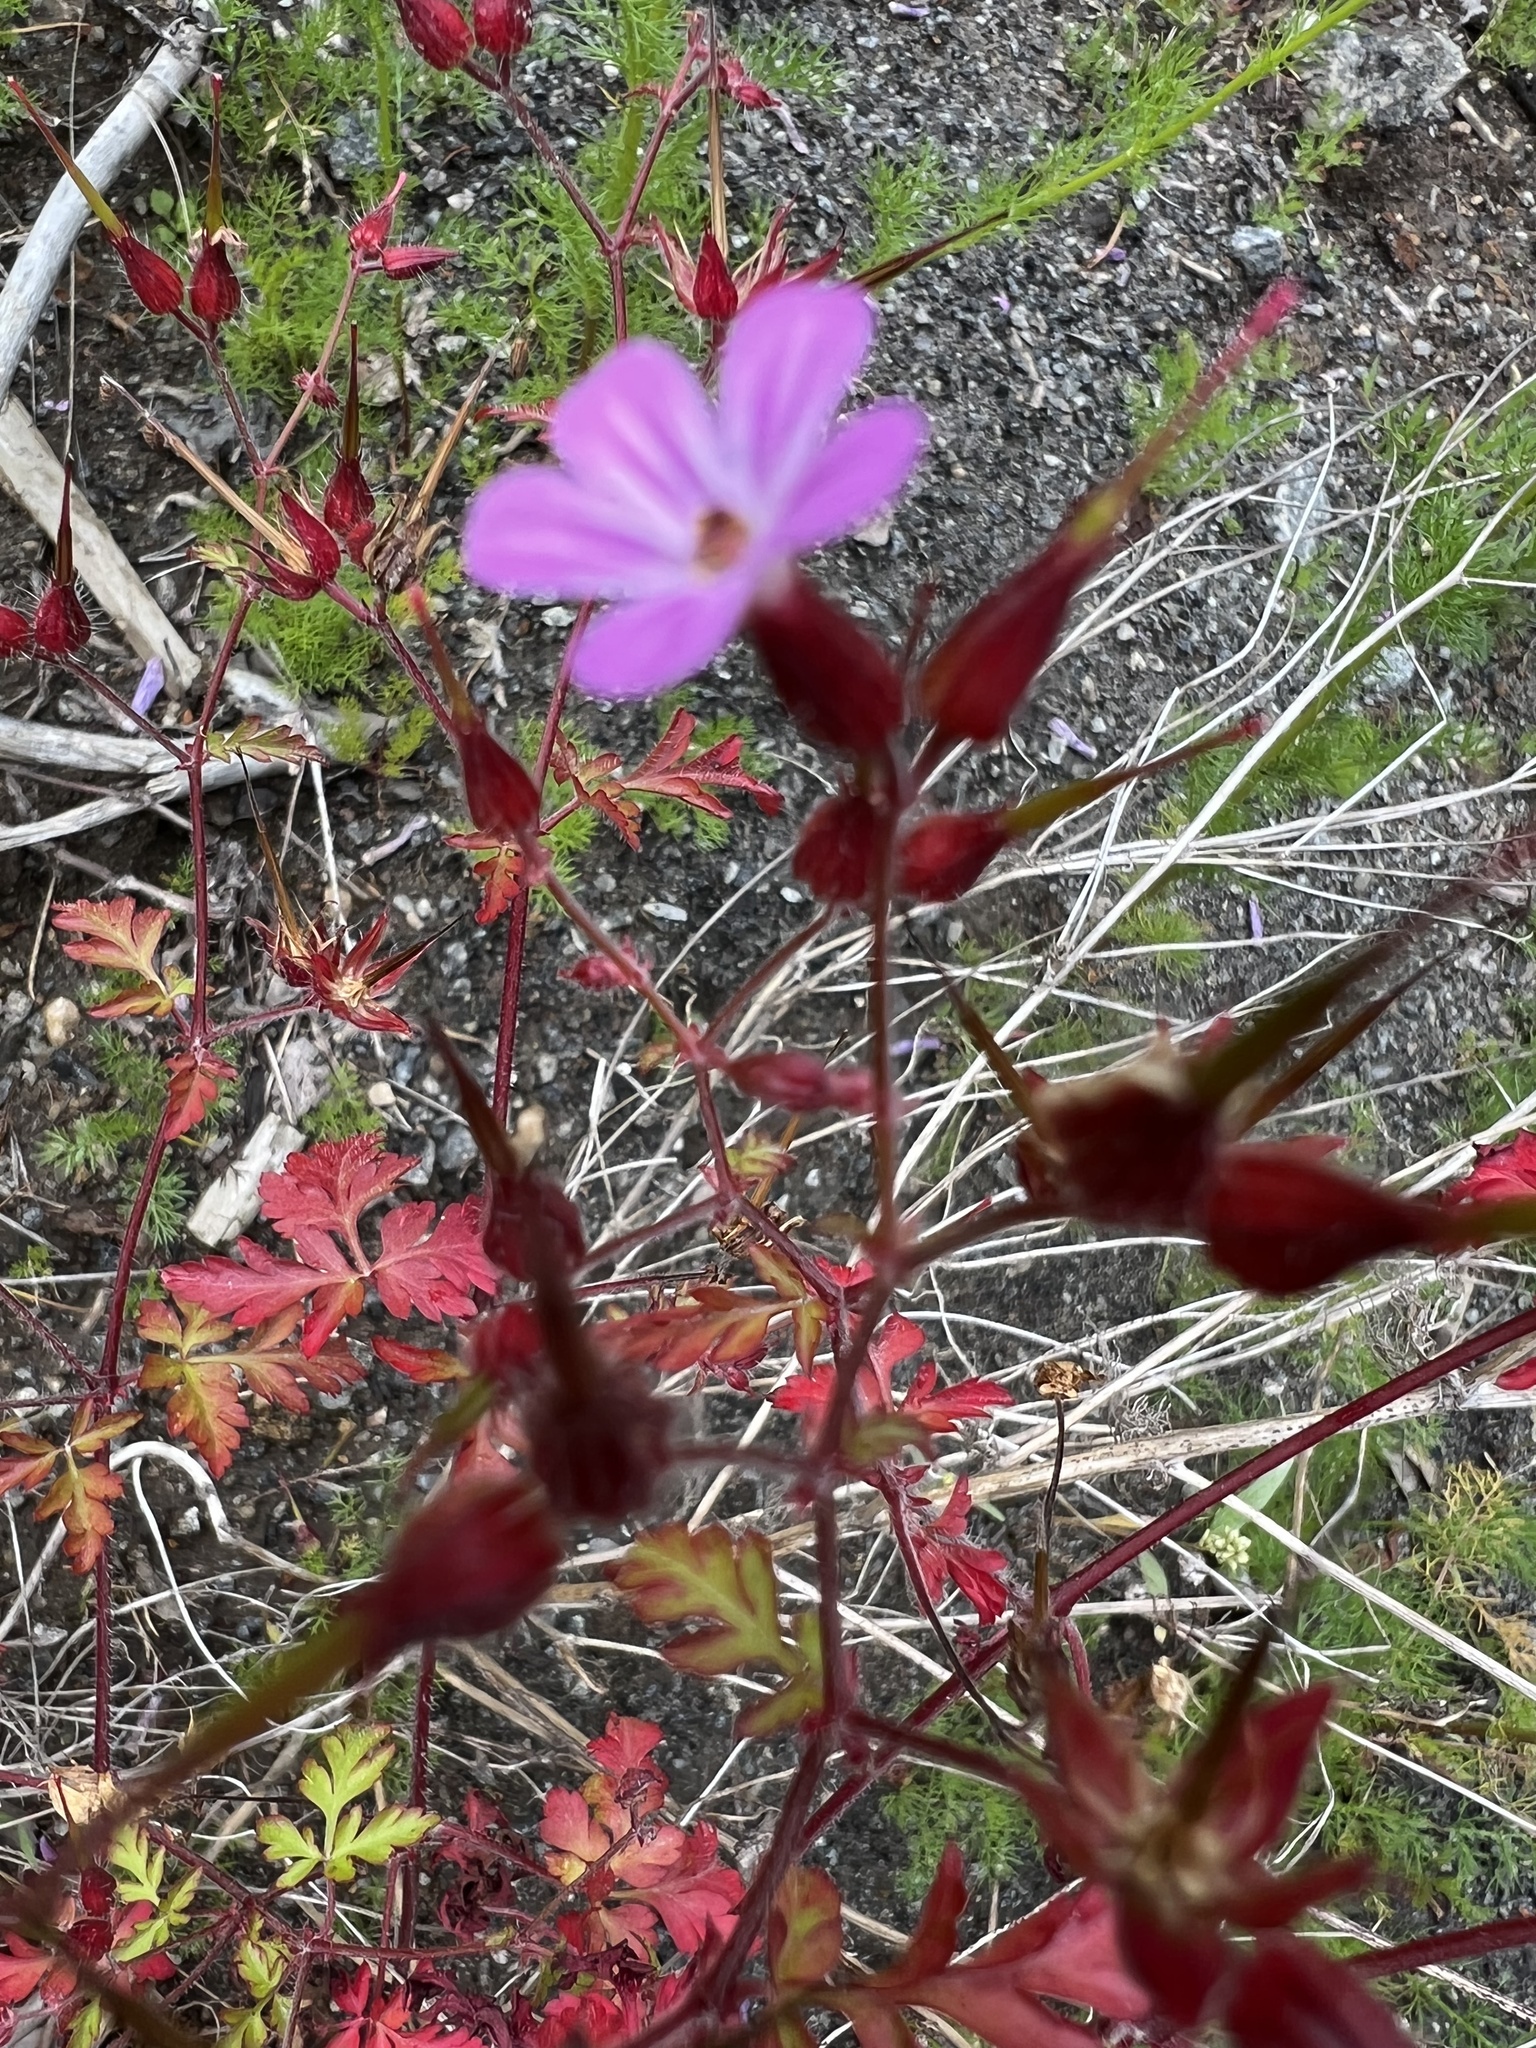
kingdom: Plantae
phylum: Tracheophyta
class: Magnoliopsida
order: Geraniales
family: Geraniaceae
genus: Geranium
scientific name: Geranium robertianum
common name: Herb-robert
